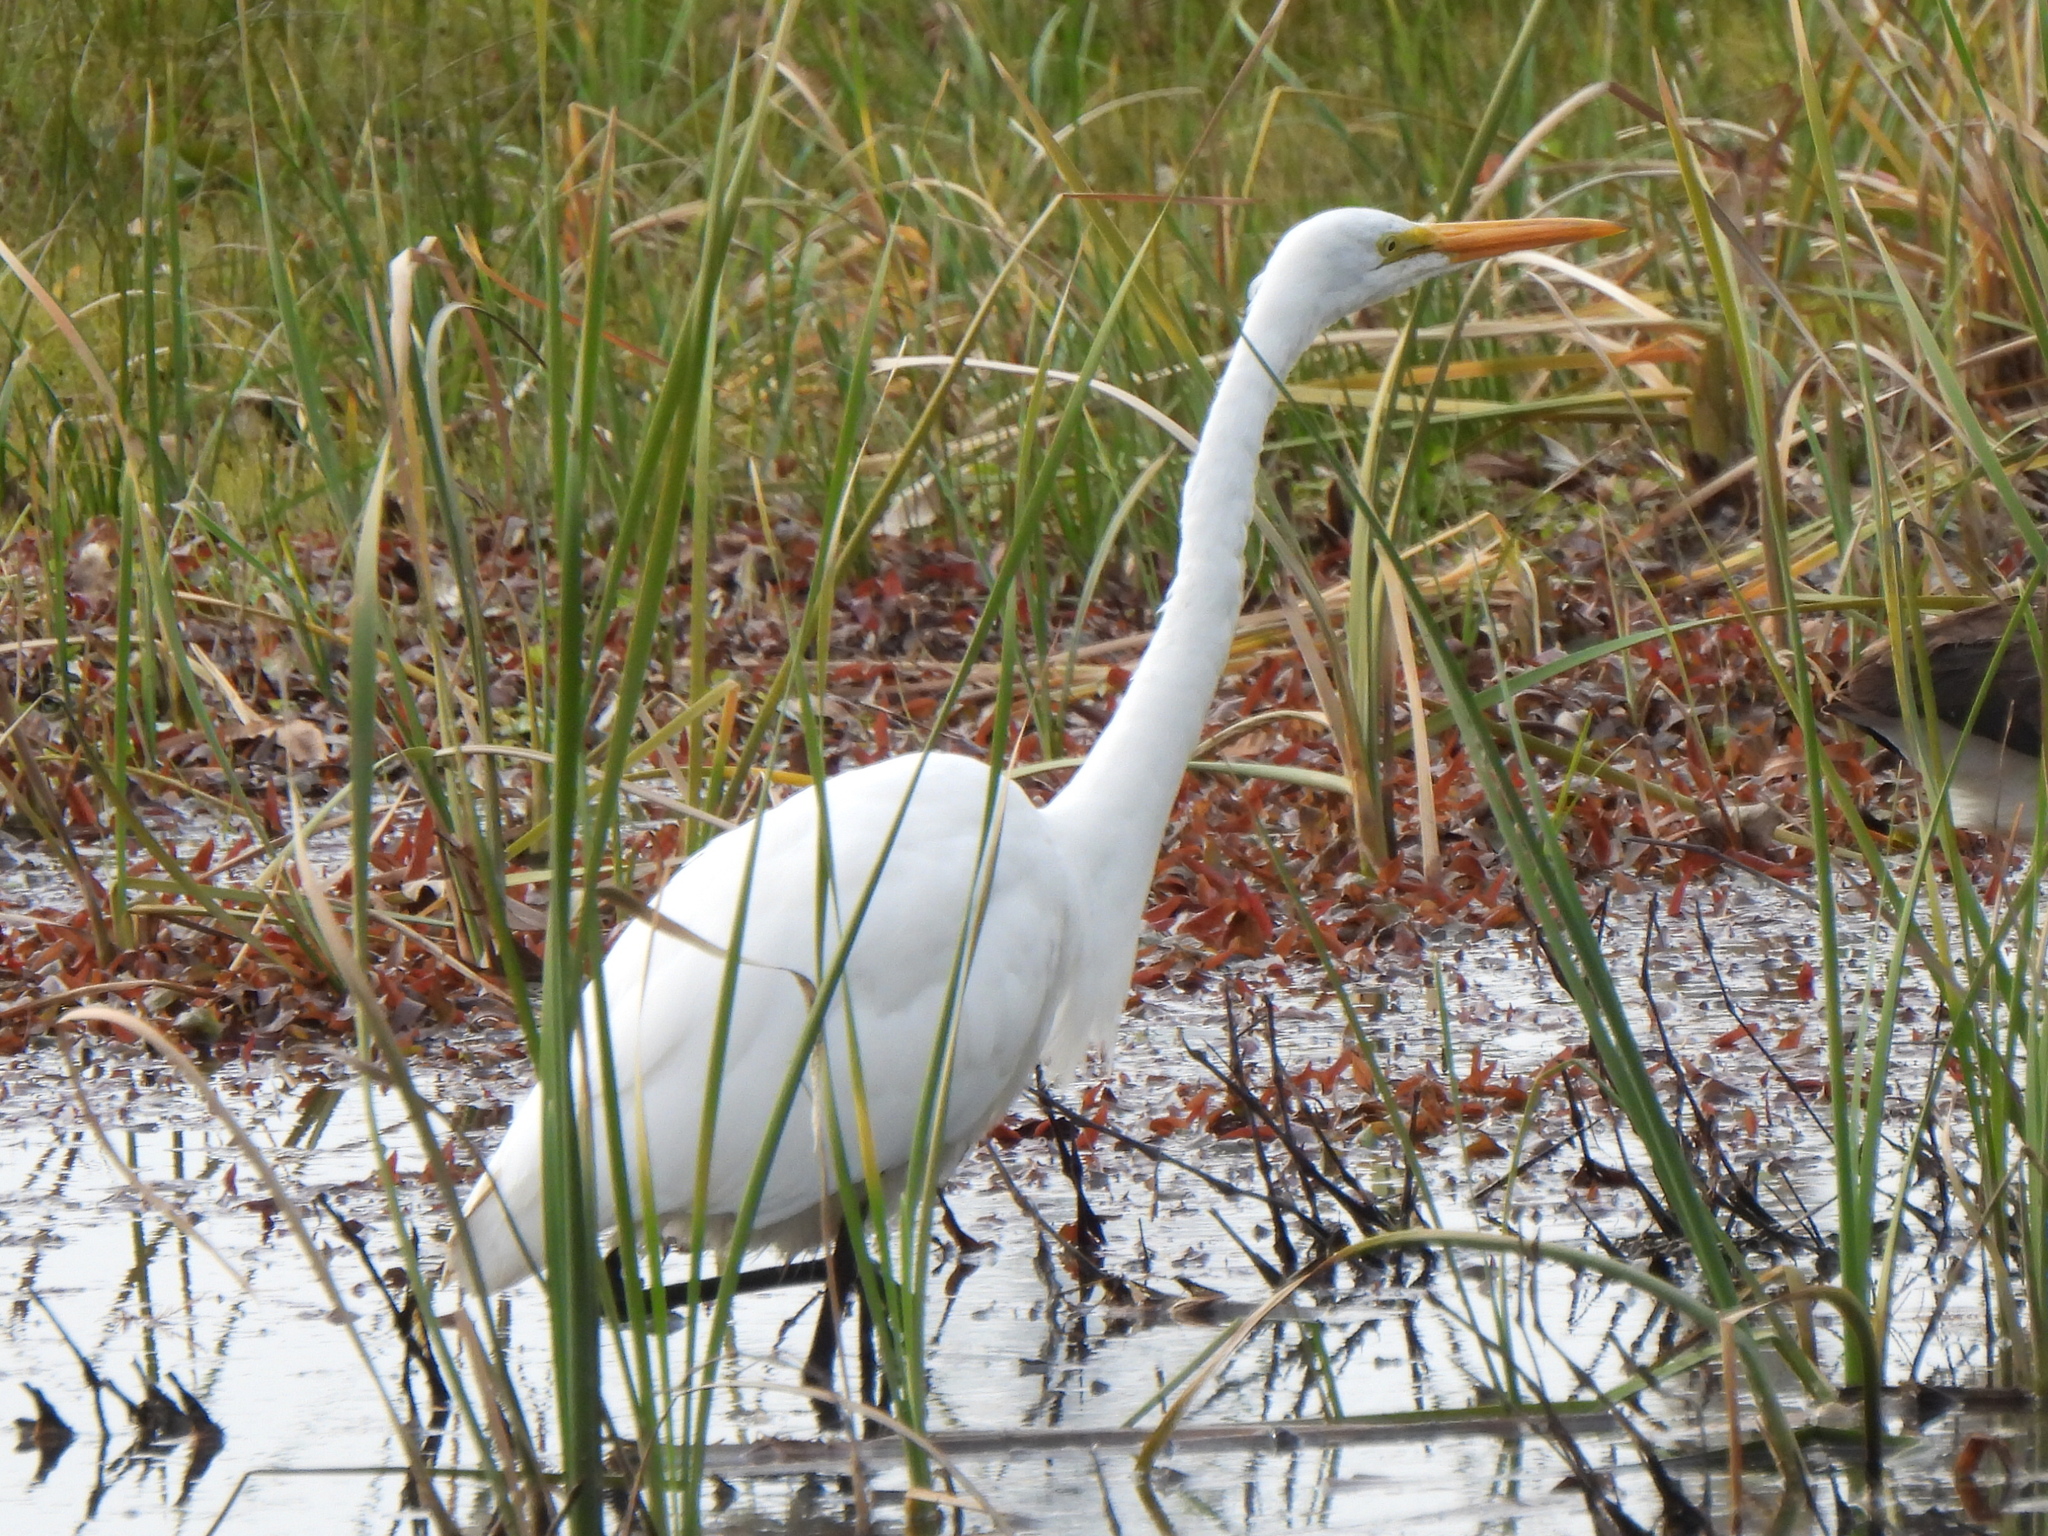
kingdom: Animalia
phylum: Chordata
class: Aves
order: Pelecaniformes
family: Ardeidae
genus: Ardea
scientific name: Ardea alba
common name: Great egret
